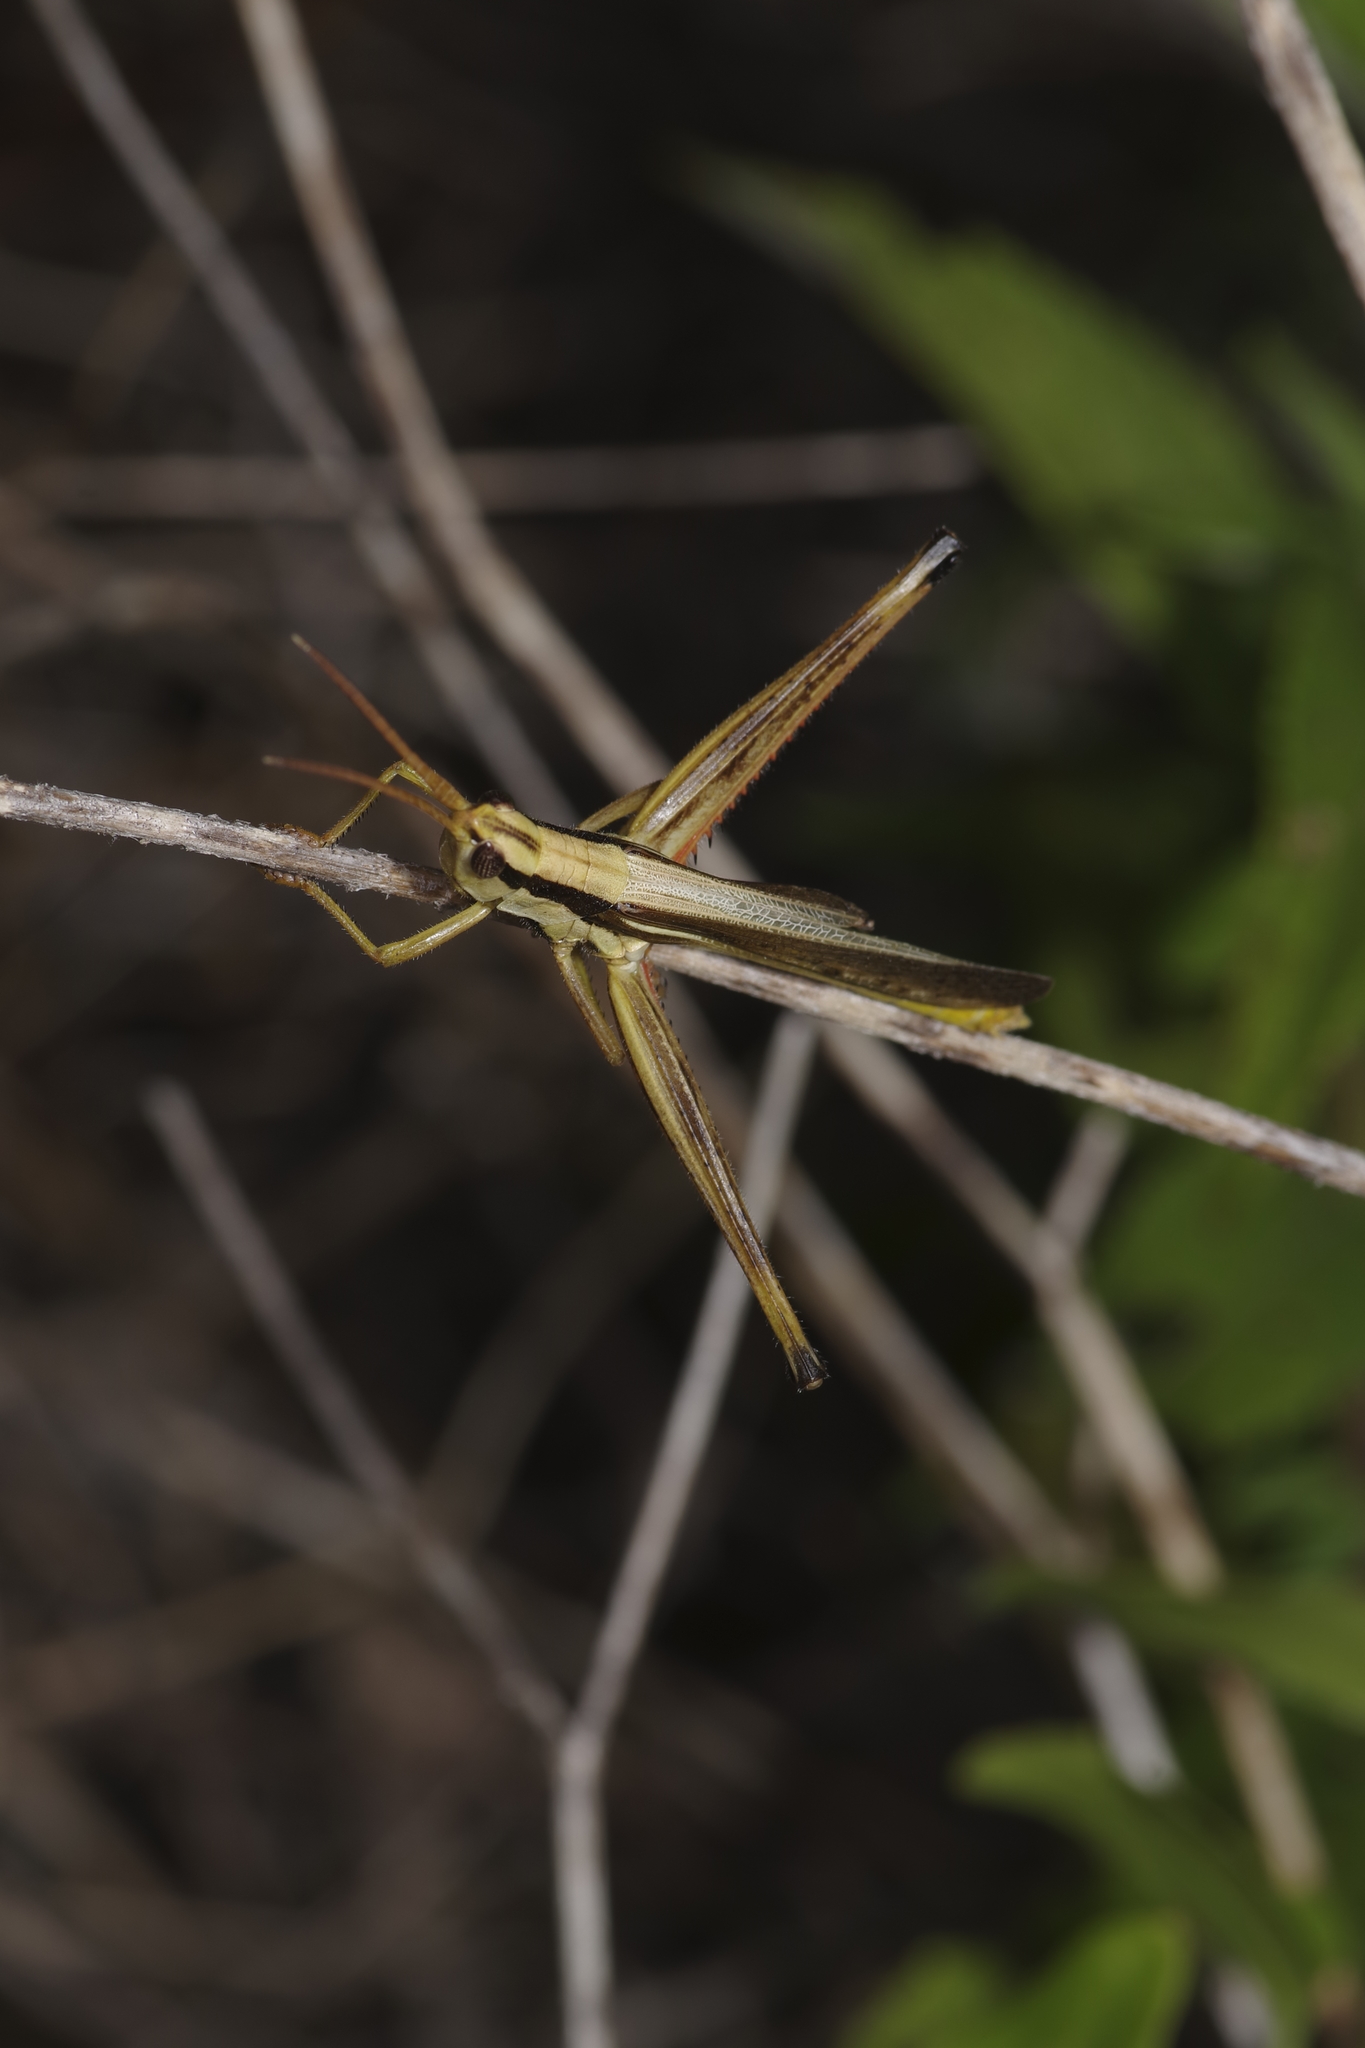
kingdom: Animalia
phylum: Arthropoda
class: Insecta
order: Orthoptera
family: Acrididae
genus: Mermiria
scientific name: Mermiria bivittata
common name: Two-striped mermiria grasshopper
